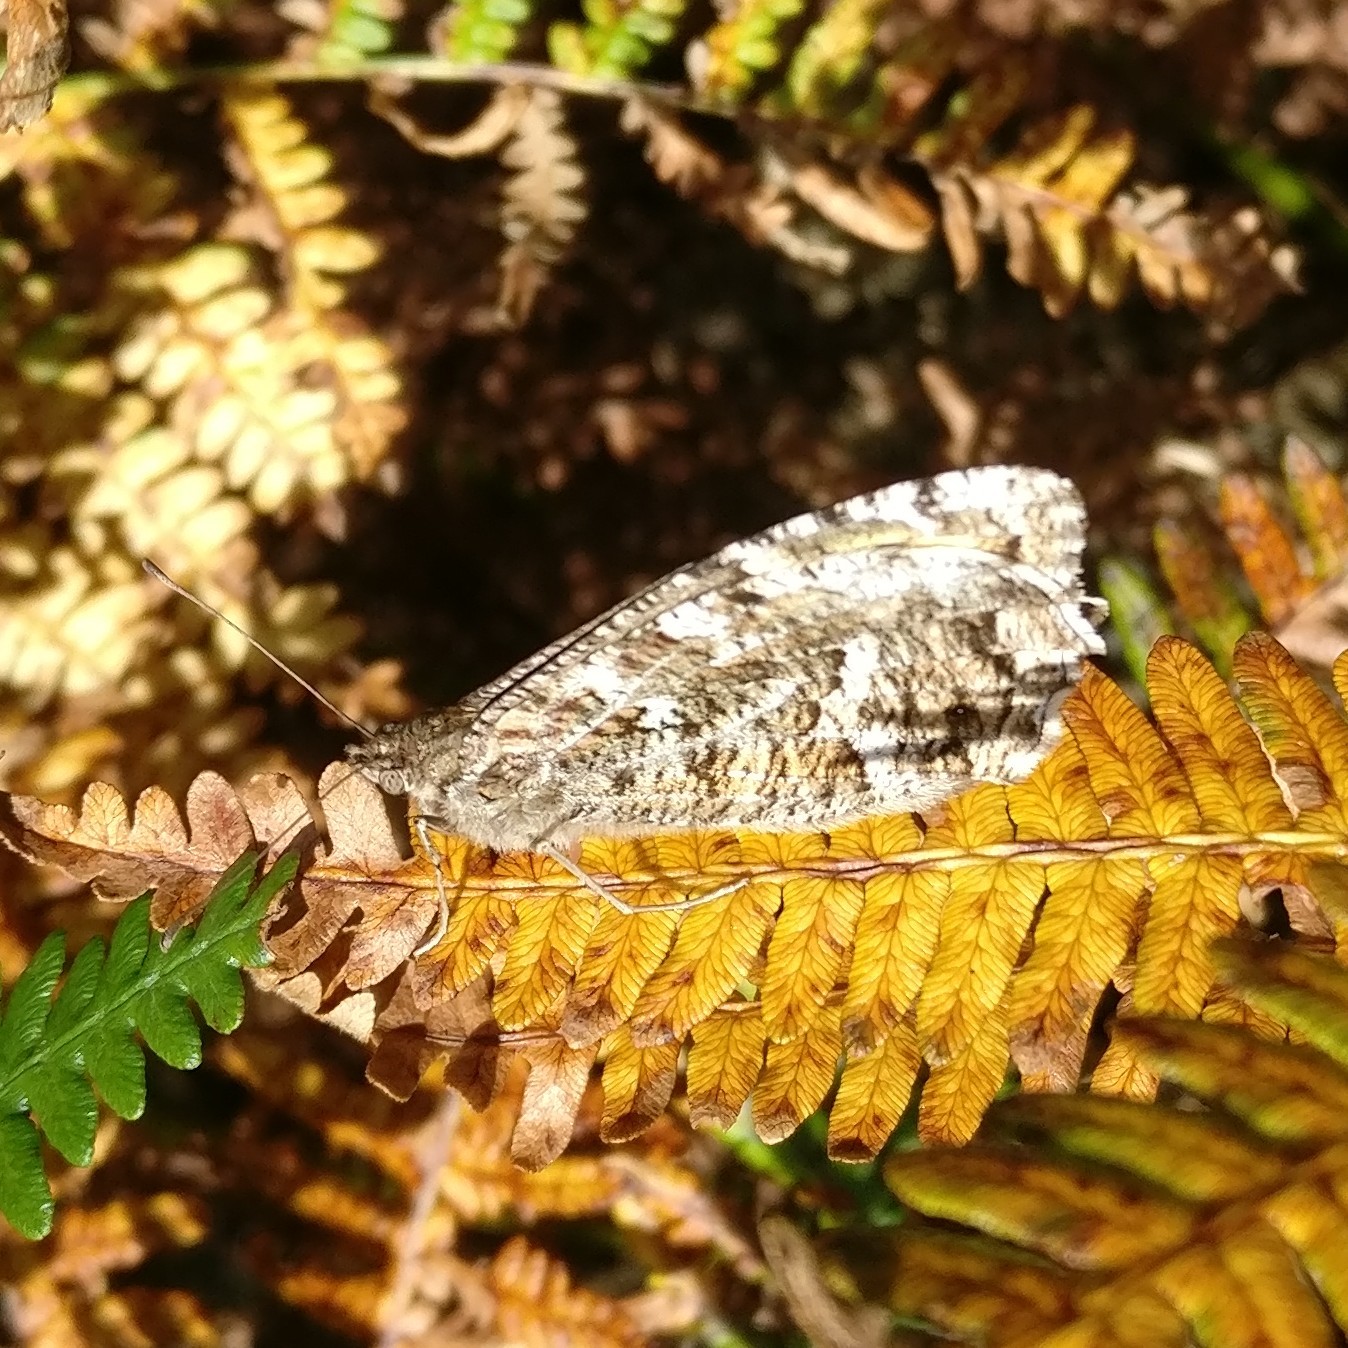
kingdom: Animalia
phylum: Arthropoda
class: Insecta
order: Lepidoptera
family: Nymphalidae
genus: Hipparchia
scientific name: Hipparchia semele
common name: Grayling
